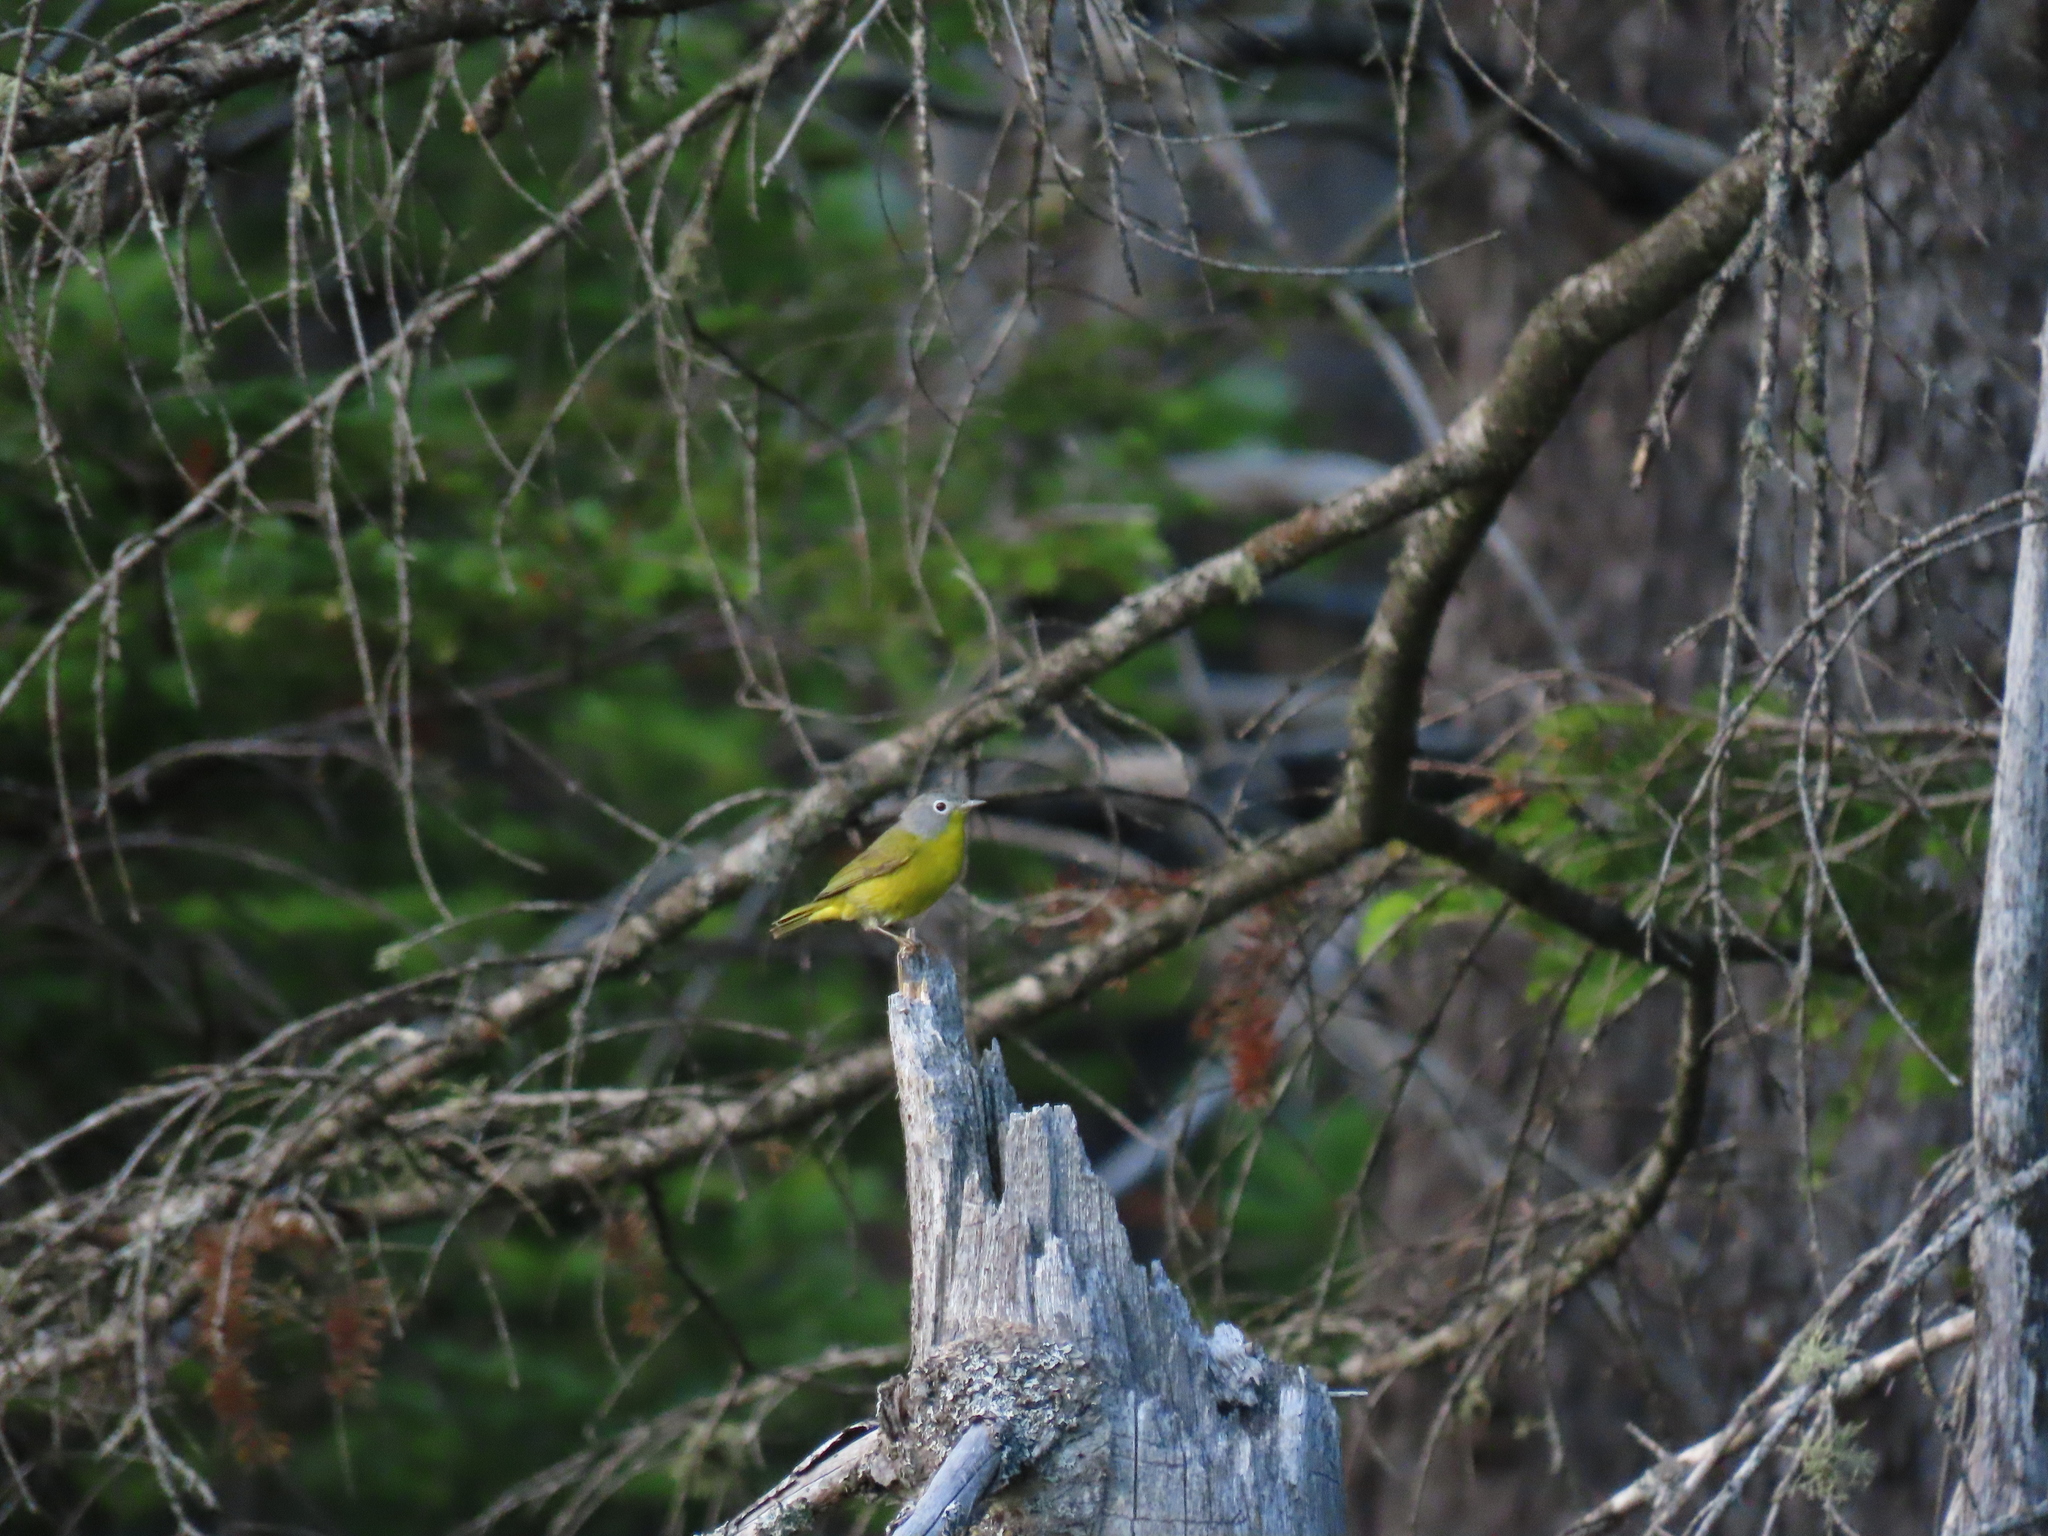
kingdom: Animalia
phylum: Chordata
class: Aves
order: Passeriformes
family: Parulidae
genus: Leiothlypis
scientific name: Leiothlypis ruficapilla
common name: Nashville warbler
